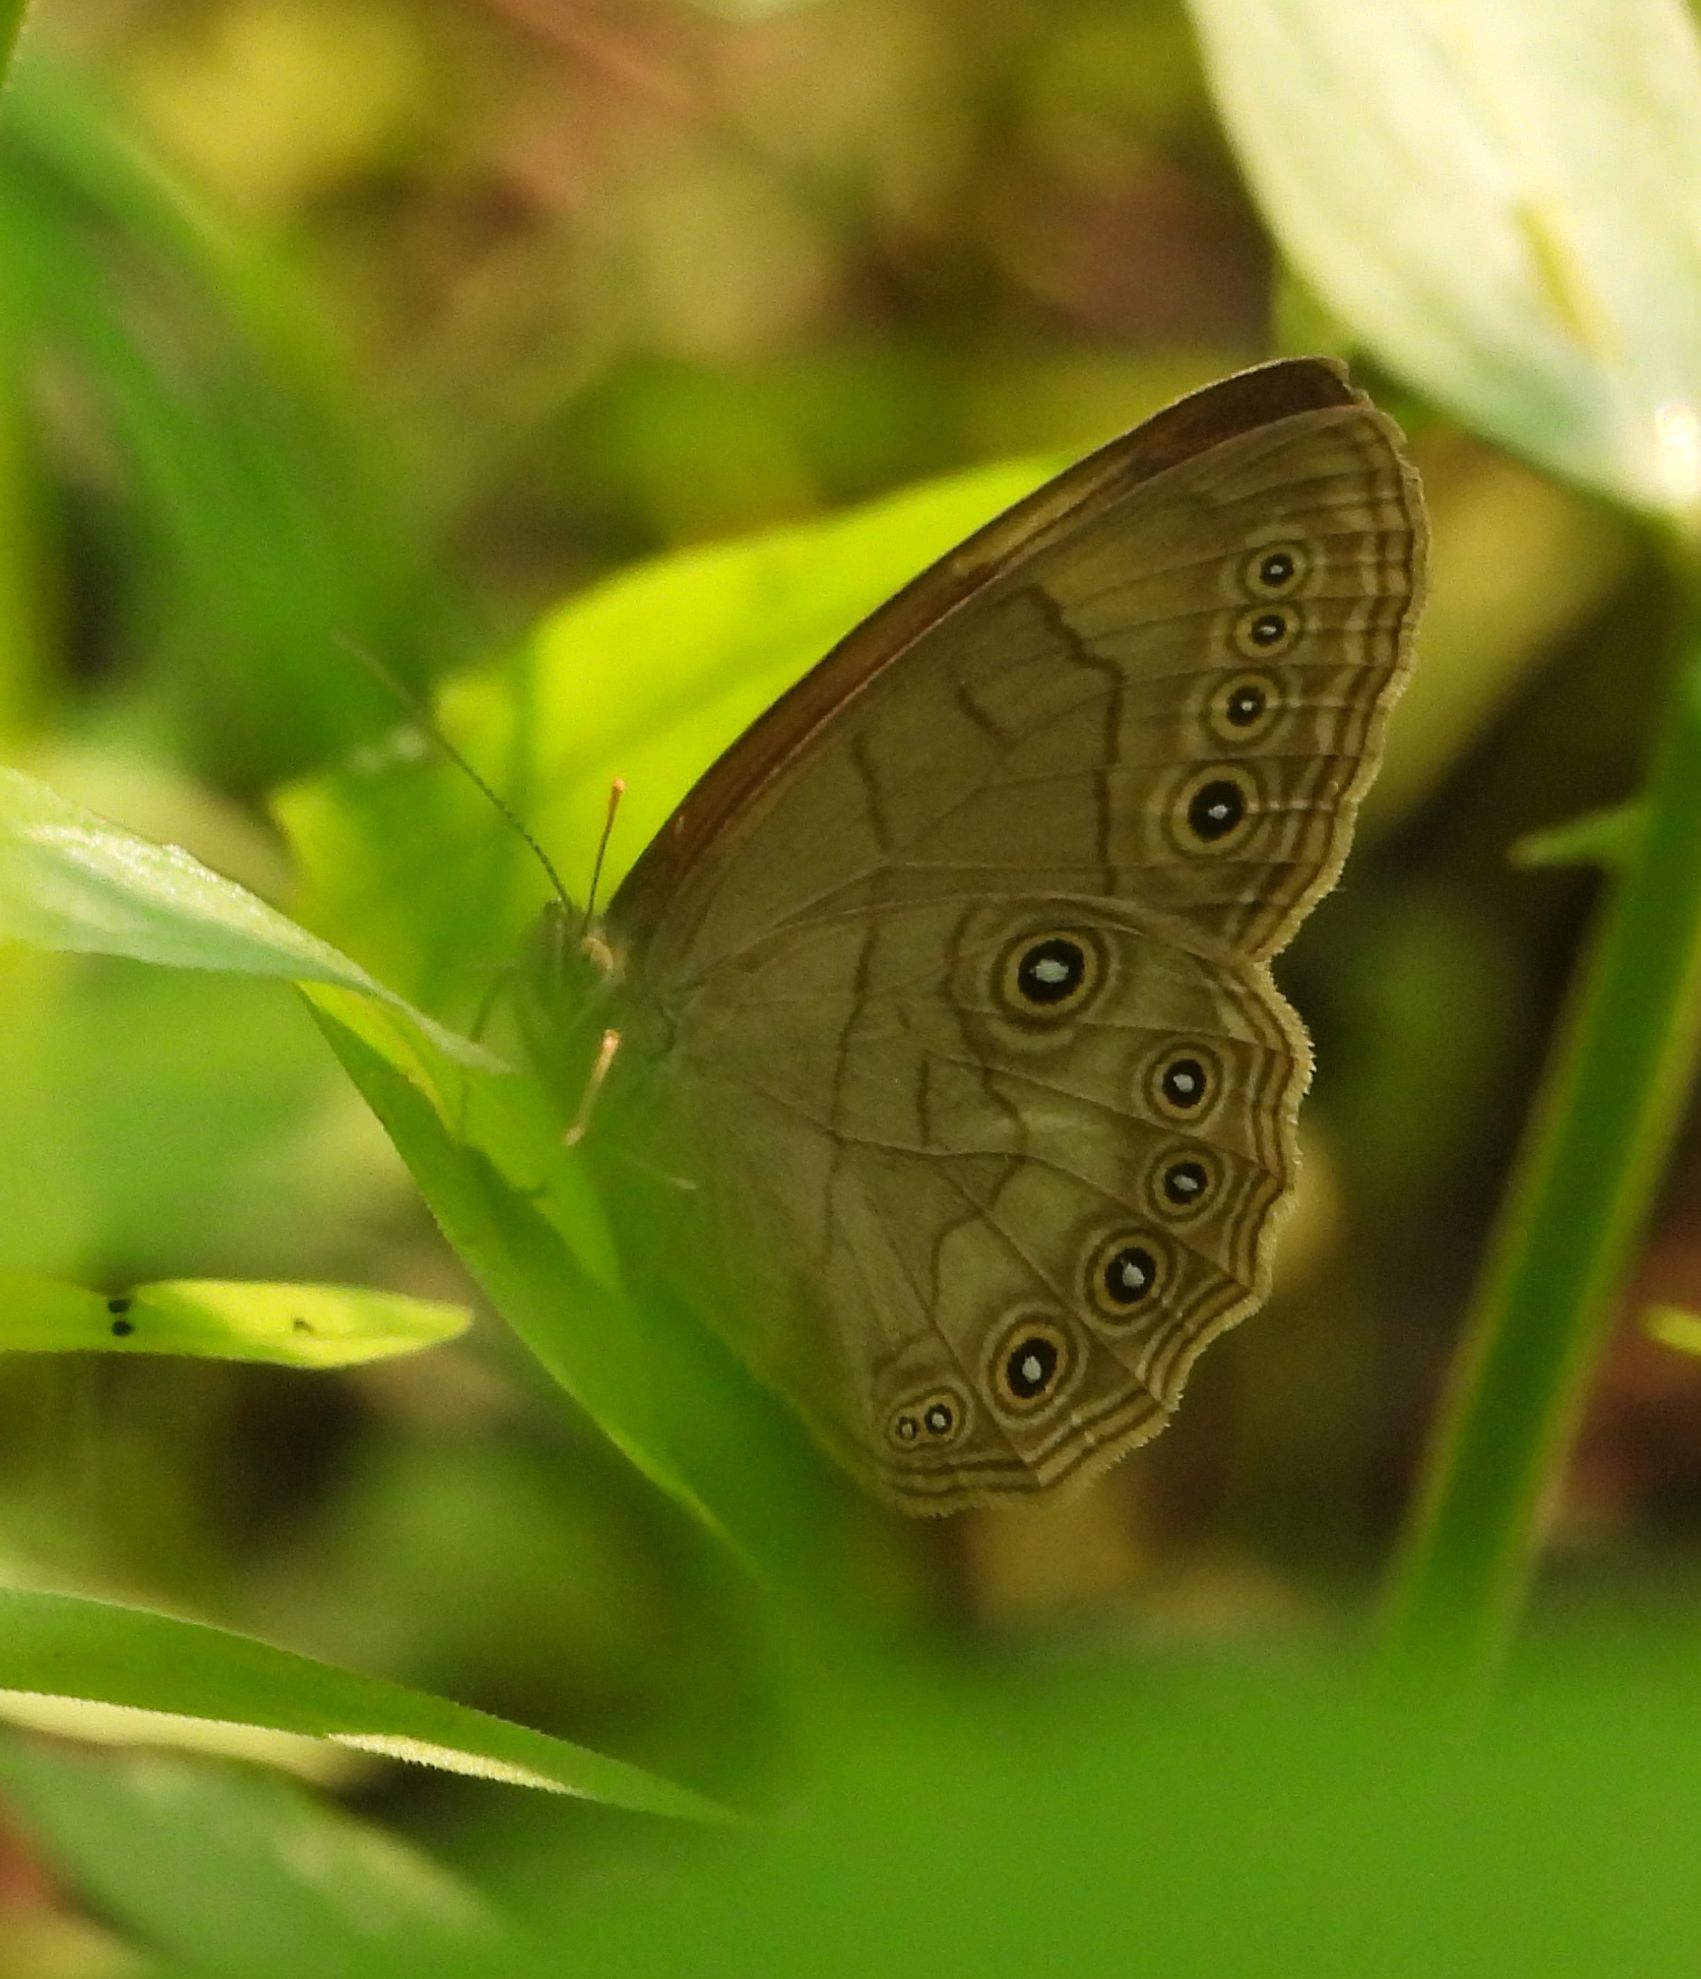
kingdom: Animalia
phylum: Arthropoda
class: Insecta
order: Lepidoptera
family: Nymphalidae
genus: Lethe
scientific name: Lethe eurydice
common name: Eyed brown
